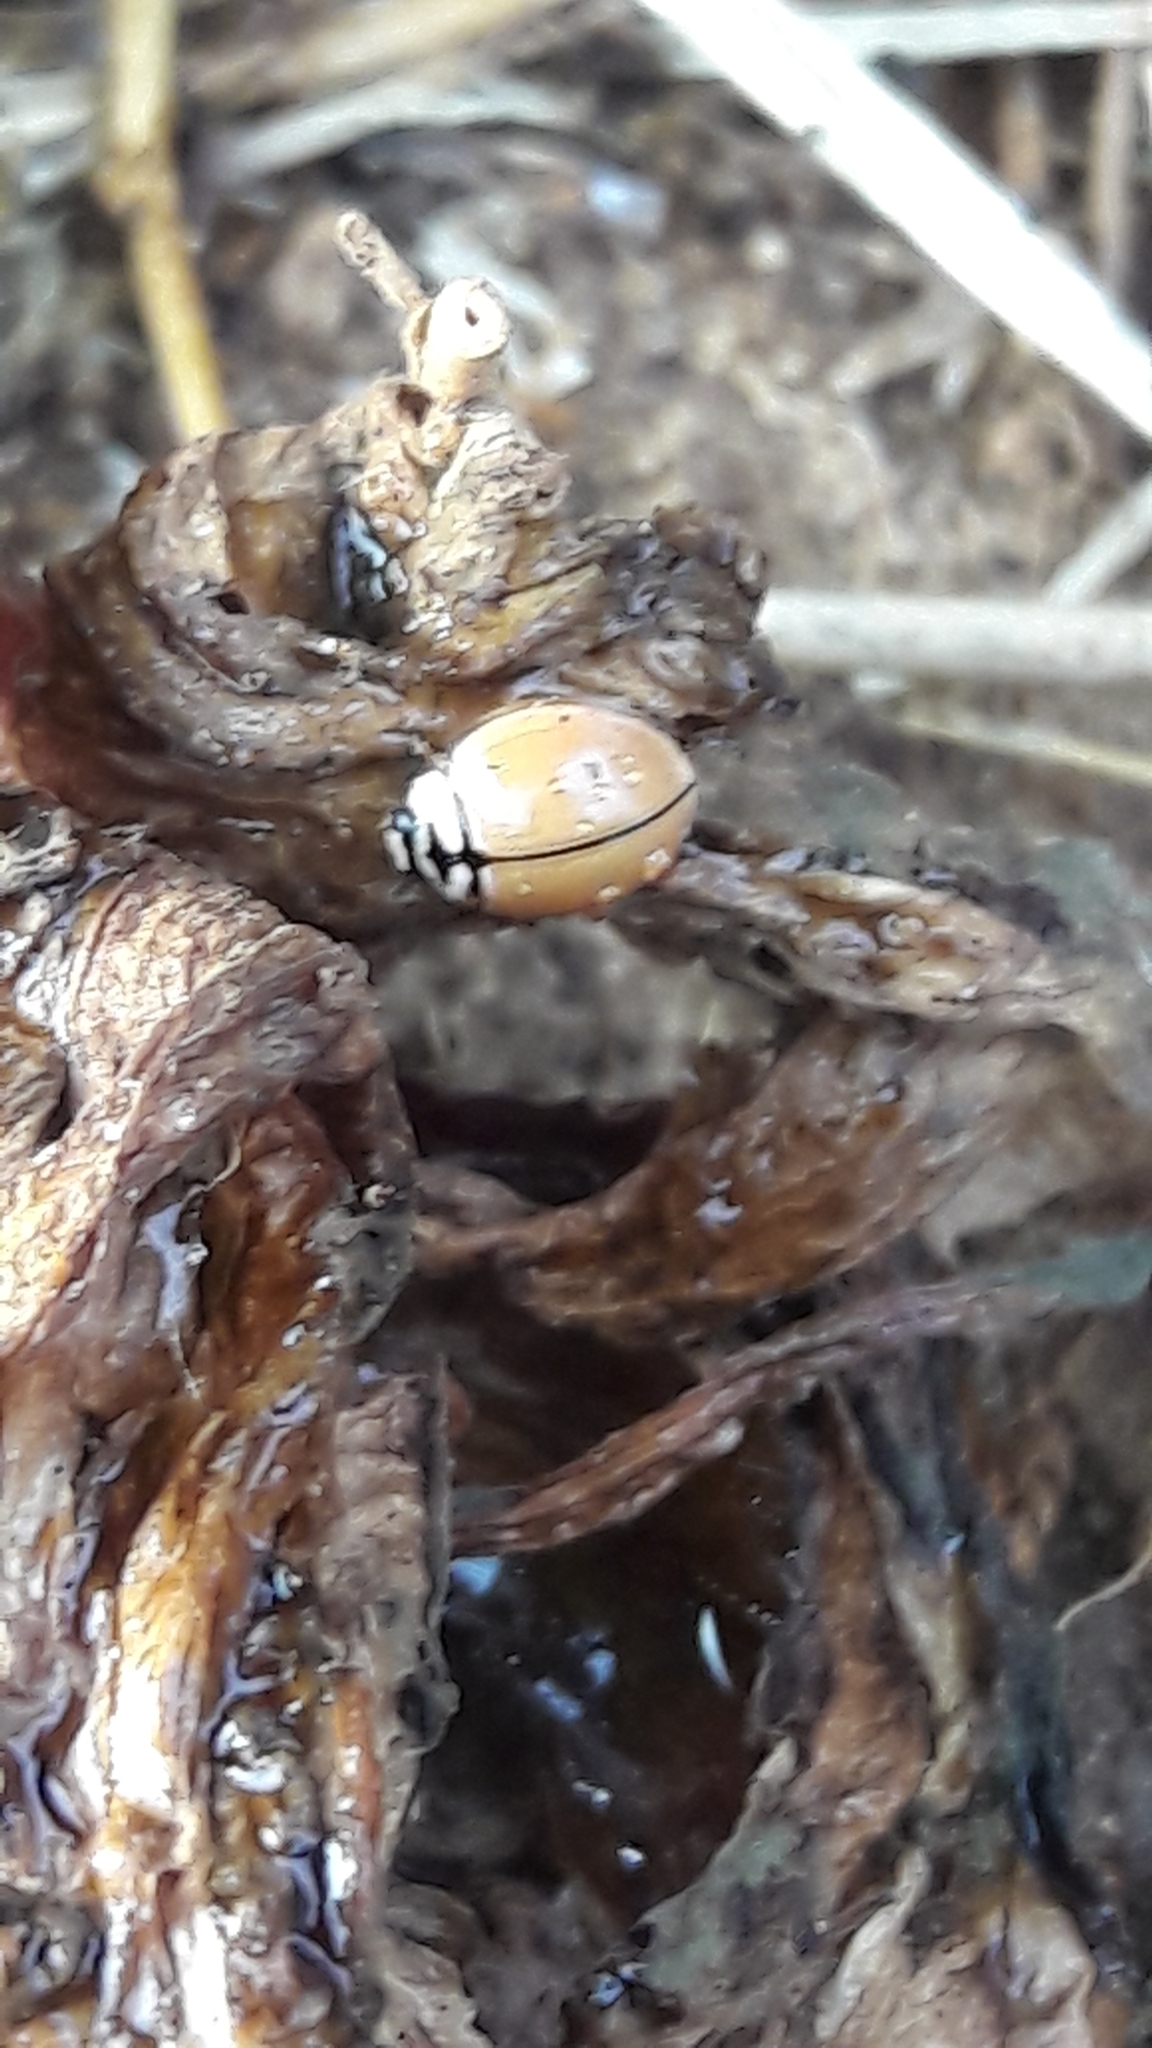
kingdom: Animalia
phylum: Arthropoda
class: Insecta
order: Coleoptera
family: Coccinellidae
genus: Cheilomenes
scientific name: Cheilomenes propinqua
